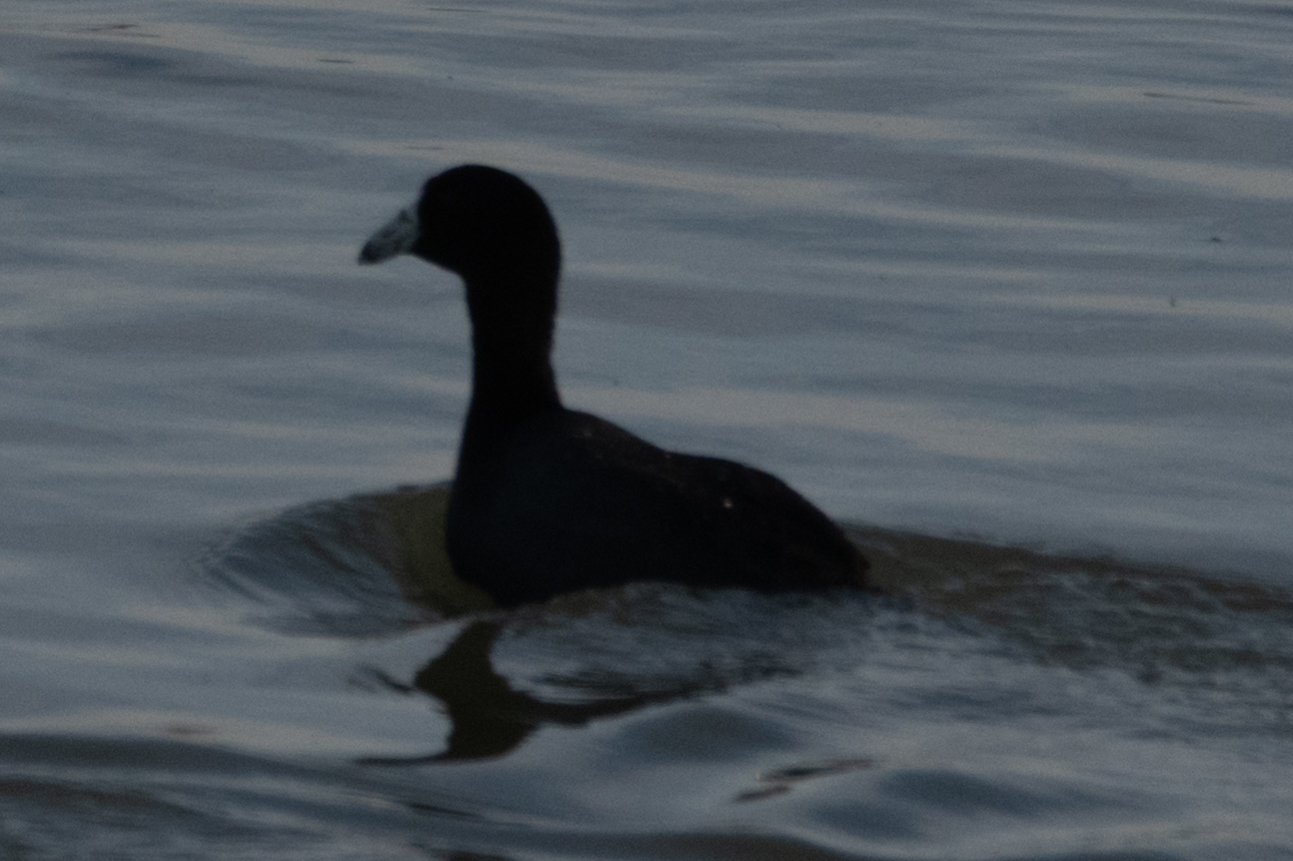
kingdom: Animalia
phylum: Chordata
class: Aves
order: Gruiformes
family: Rallidae
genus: Fulica
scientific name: Fulica americana
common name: American coot
